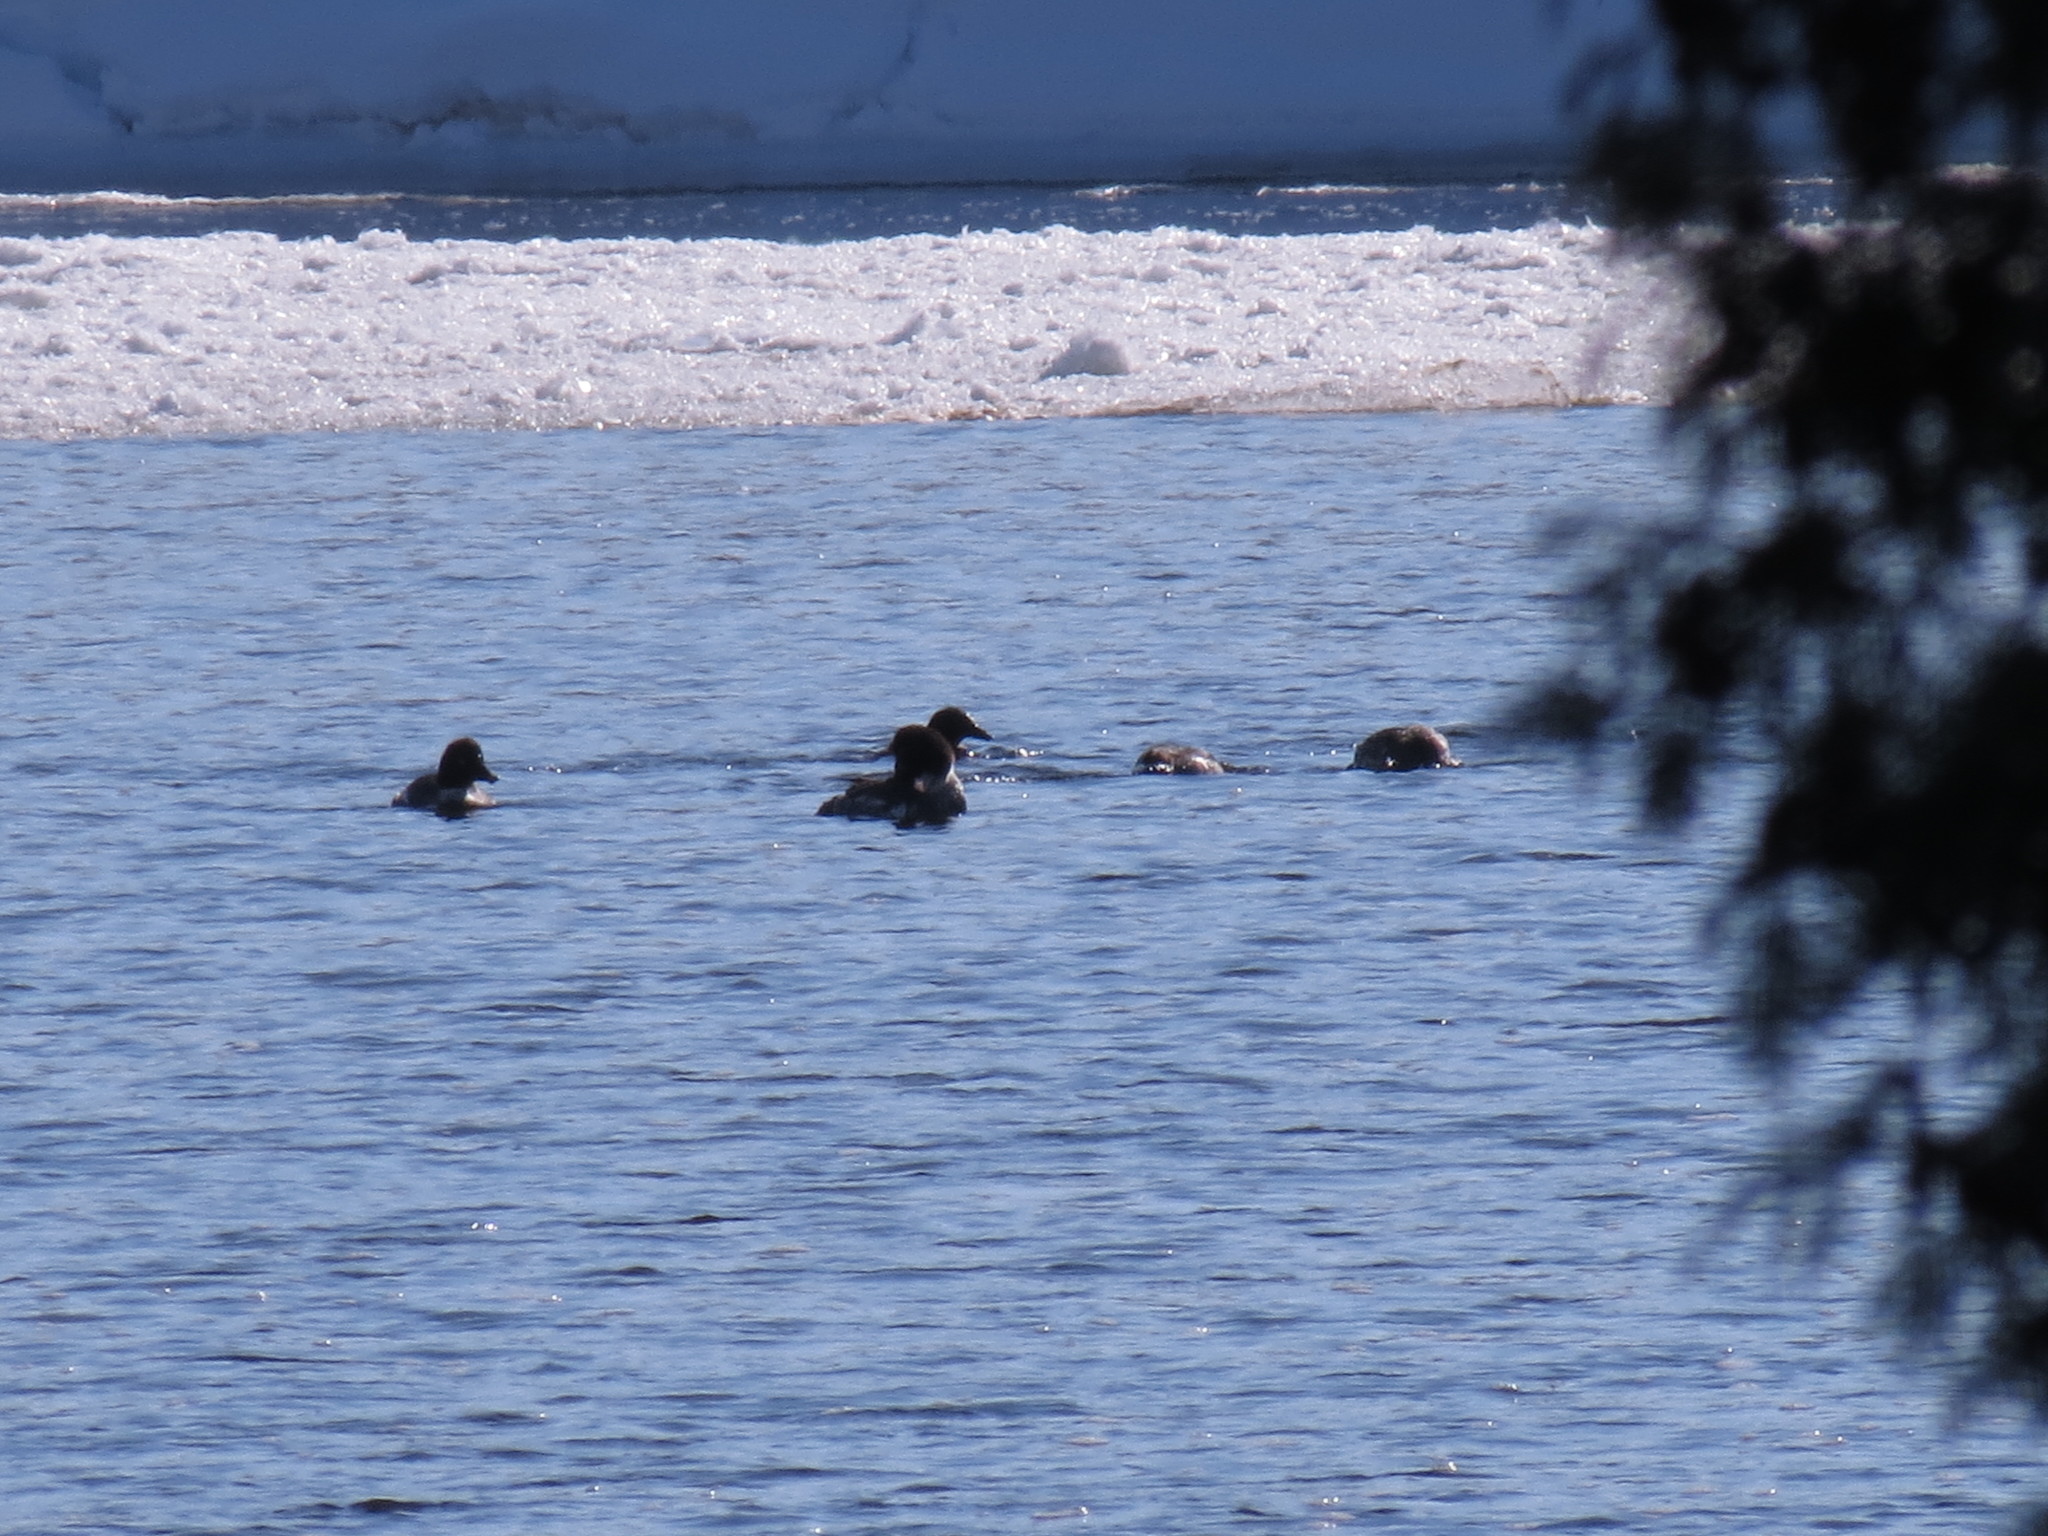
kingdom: Animalia
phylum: Chordata
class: Aves
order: Anseriformes
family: Anatidae
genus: Bucephala
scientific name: Bucephala clangula
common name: Common goldeneye
